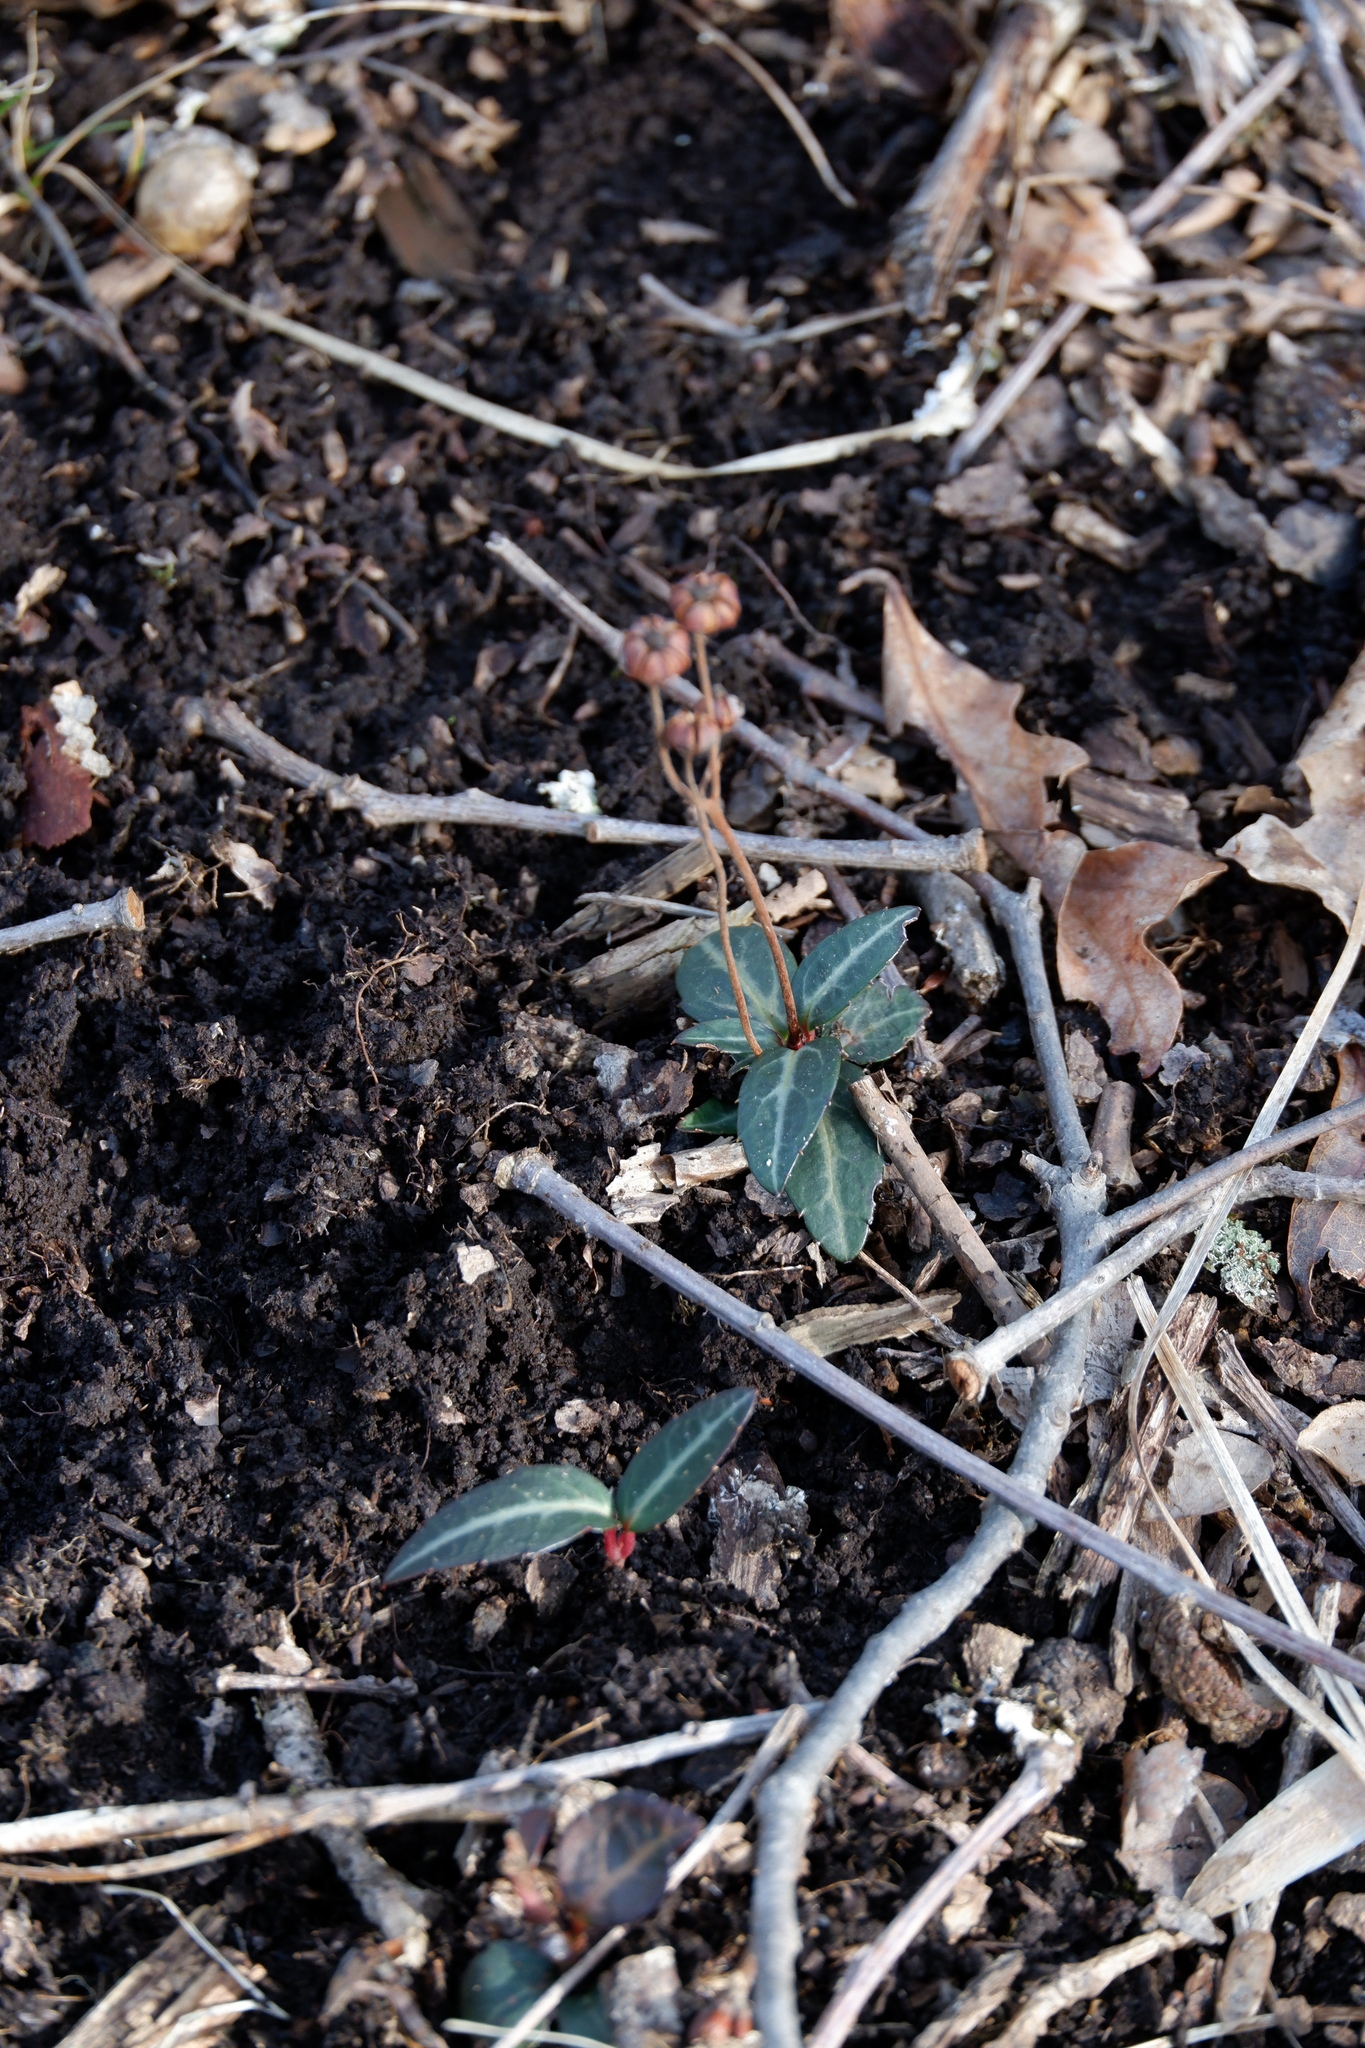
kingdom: Plantae
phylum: Tracheophyta
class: Magnoliopsida
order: Ericales
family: Ericaceae
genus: Chimaphila
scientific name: Chimaphila maculata
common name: Spotted pipsissewa
